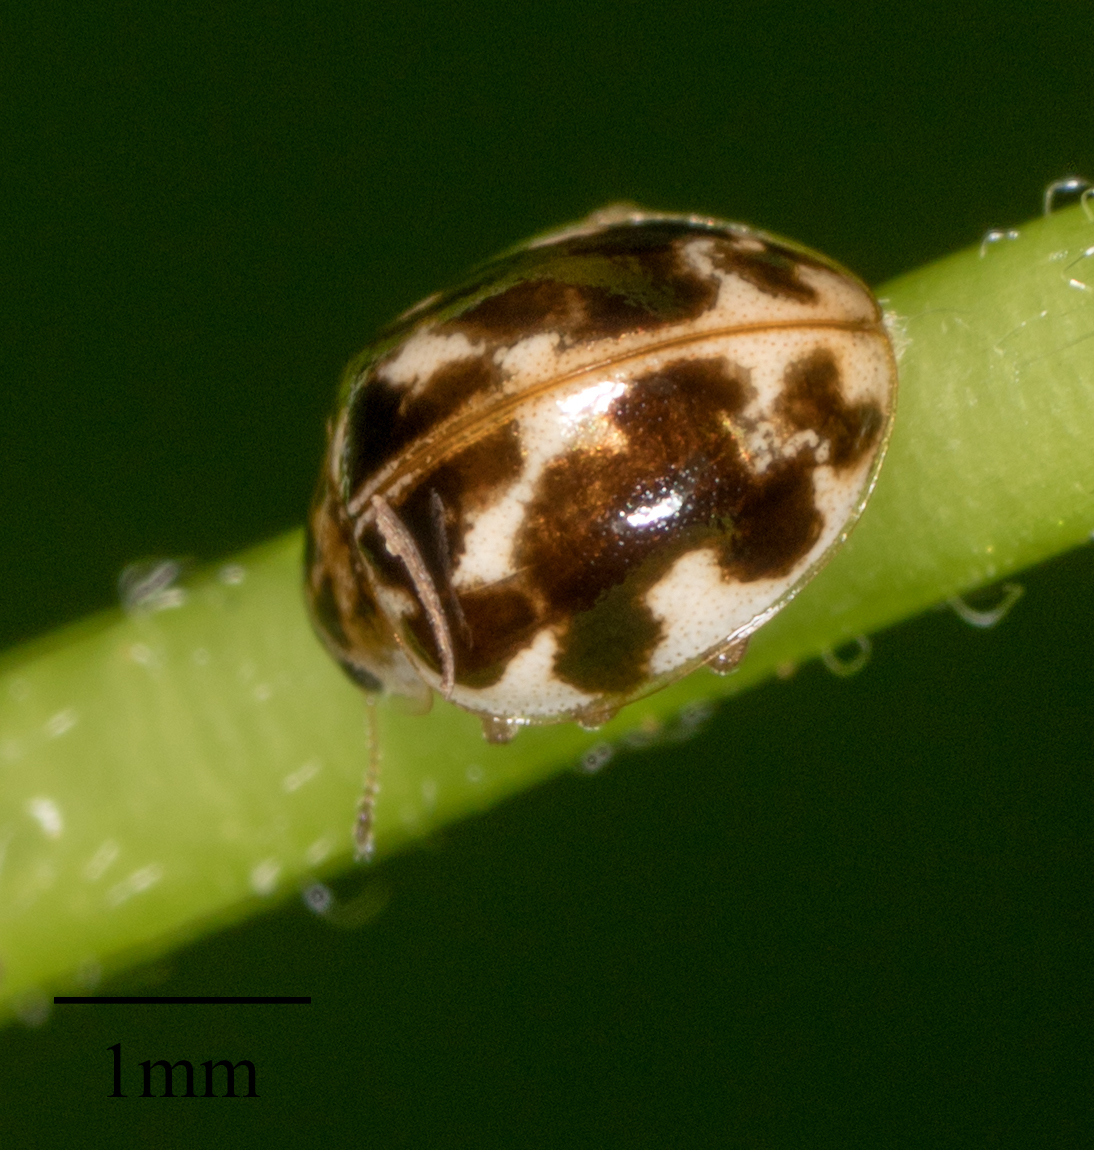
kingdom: Animalia
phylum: Arthropoda
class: Insecta
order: Coleoptera
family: Coccinellidae
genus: Psyllobora
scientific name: Psyllobora vigintimaculata
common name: Ladybird beetle
